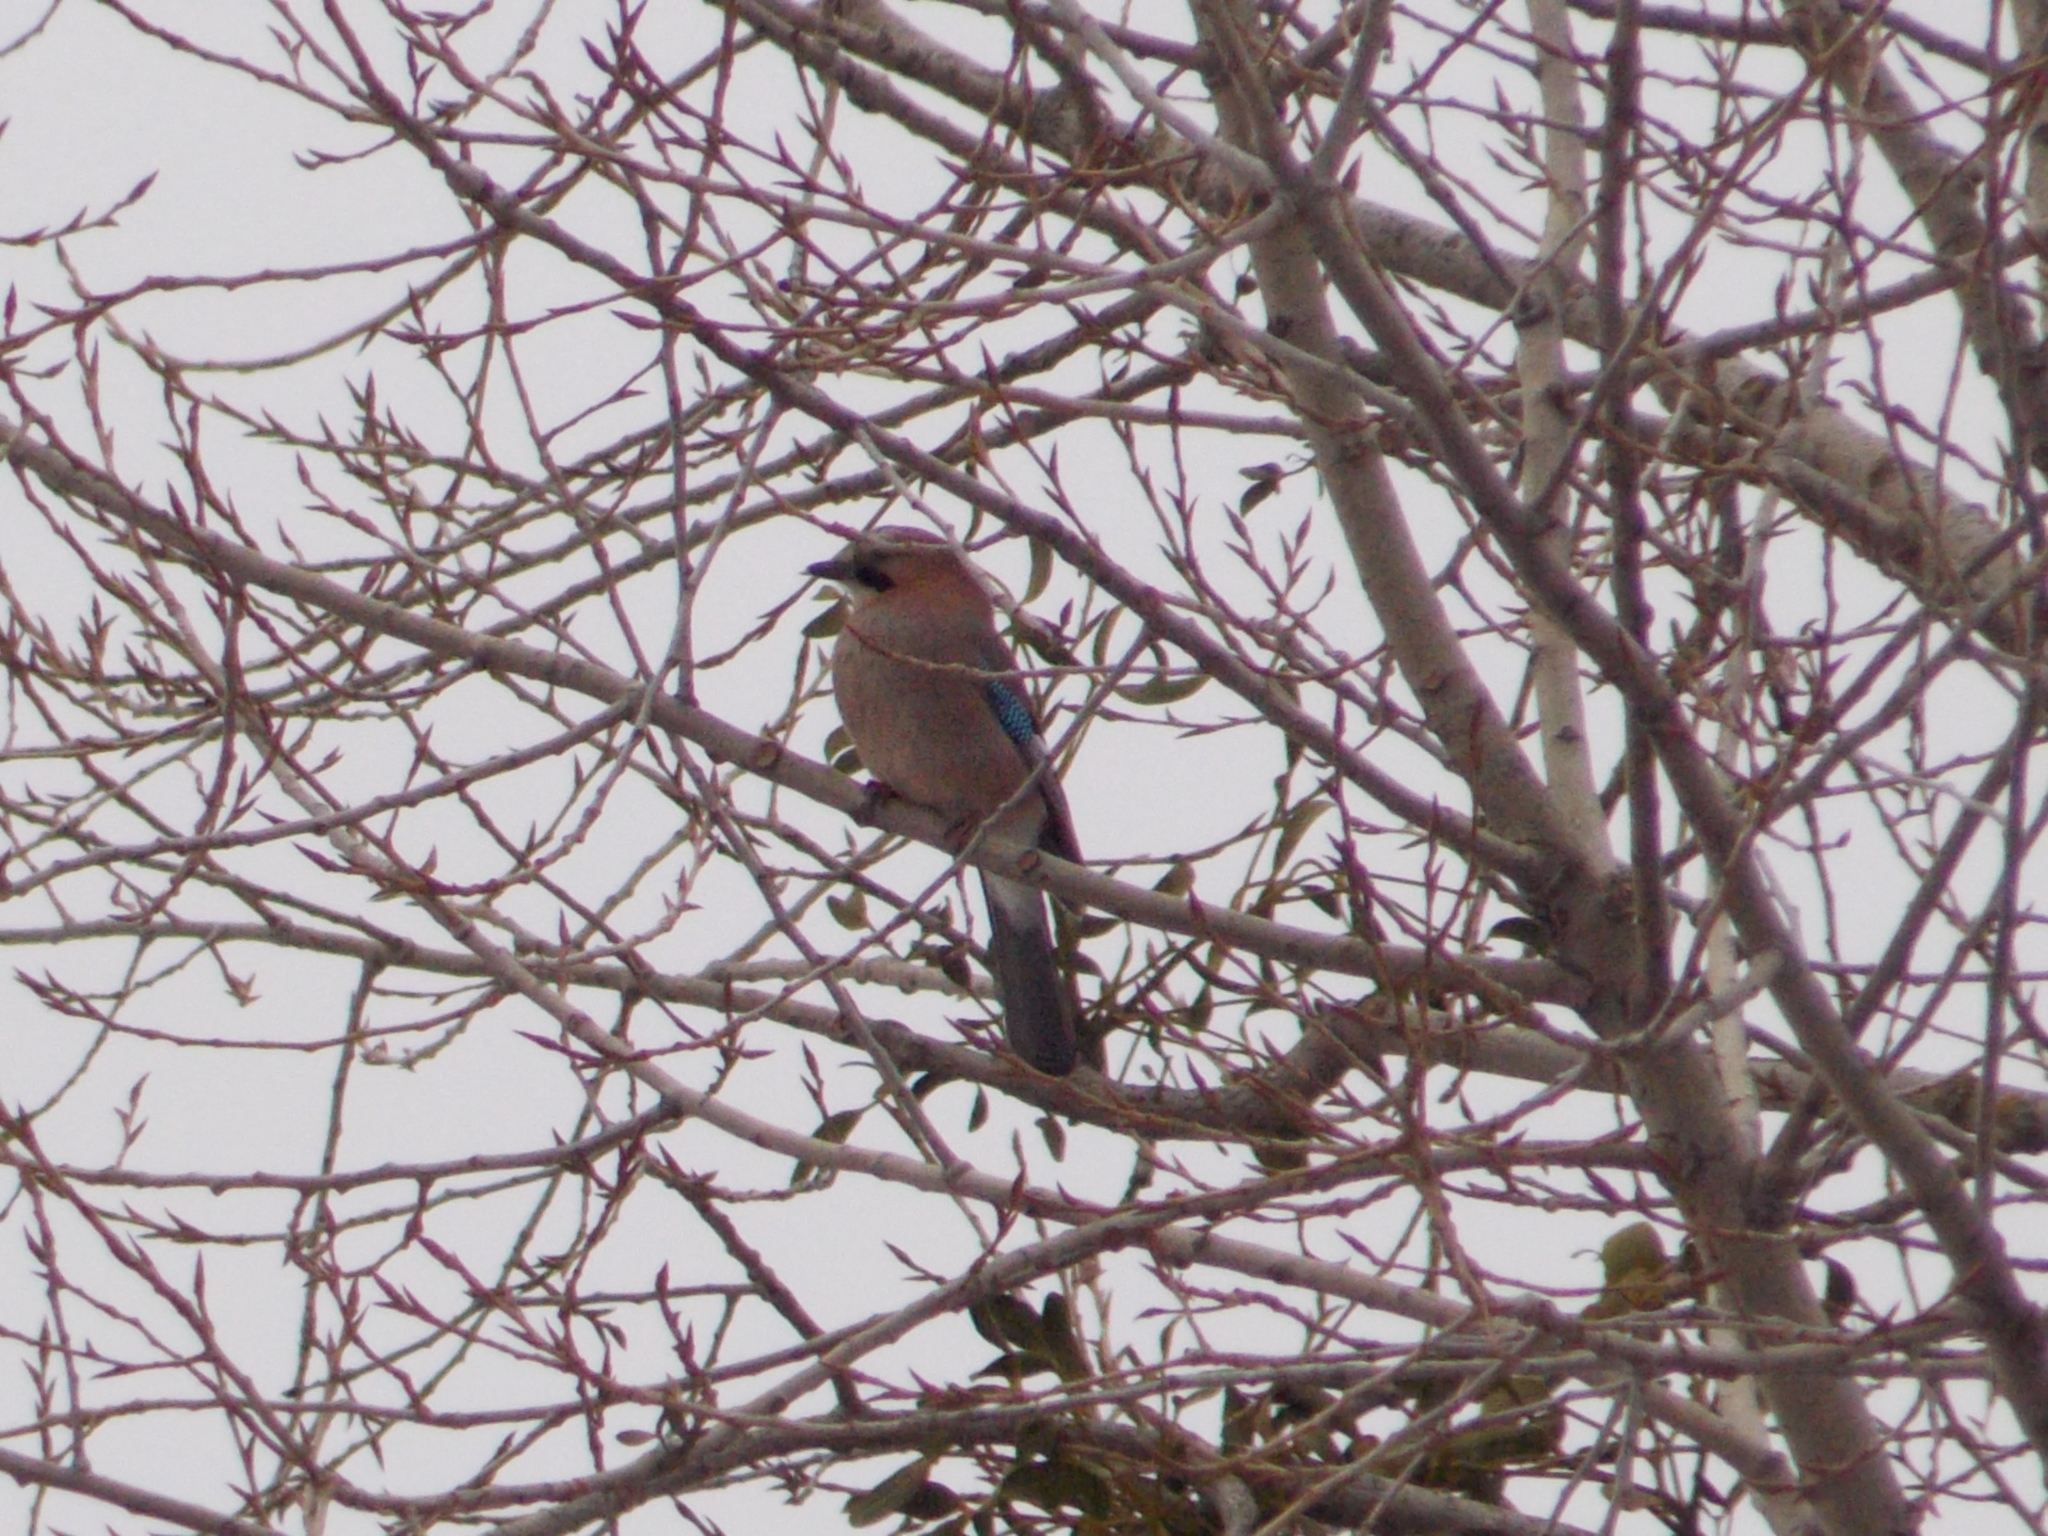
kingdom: Animalia
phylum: Chordata
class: Aves
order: Passeriformes
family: Corvidae
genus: Garrulus
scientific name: Garrulus glandarius
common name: Eurasian jay
